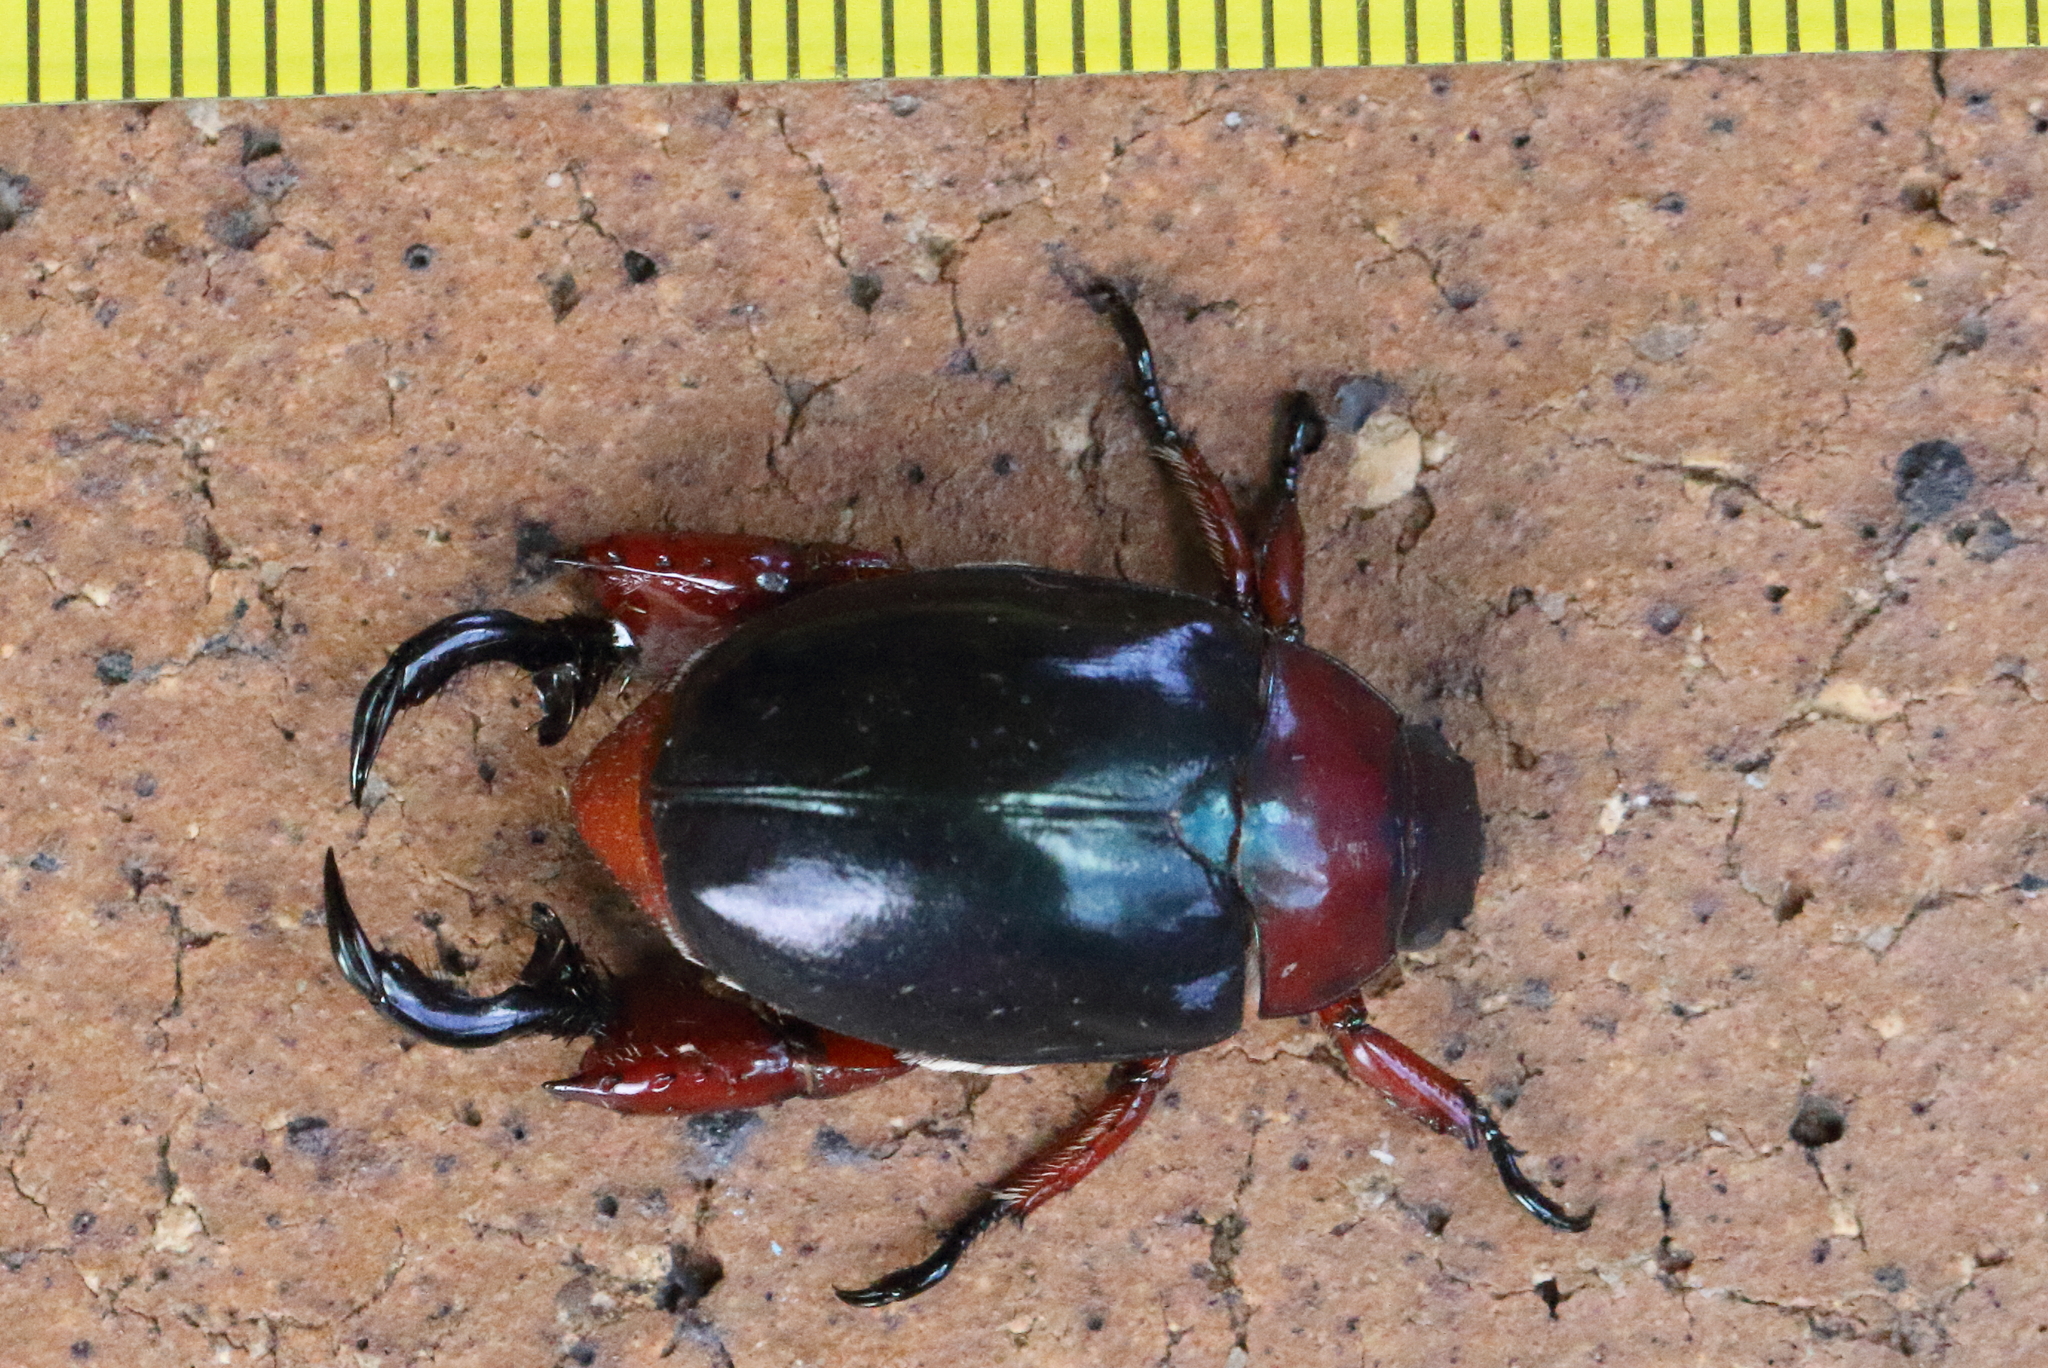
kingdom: Animalia
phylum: Arthropoda
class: Insecta
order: Coleoptera
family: Scarabaeidae
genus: Repsimus
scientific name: Repsimus manicatus
